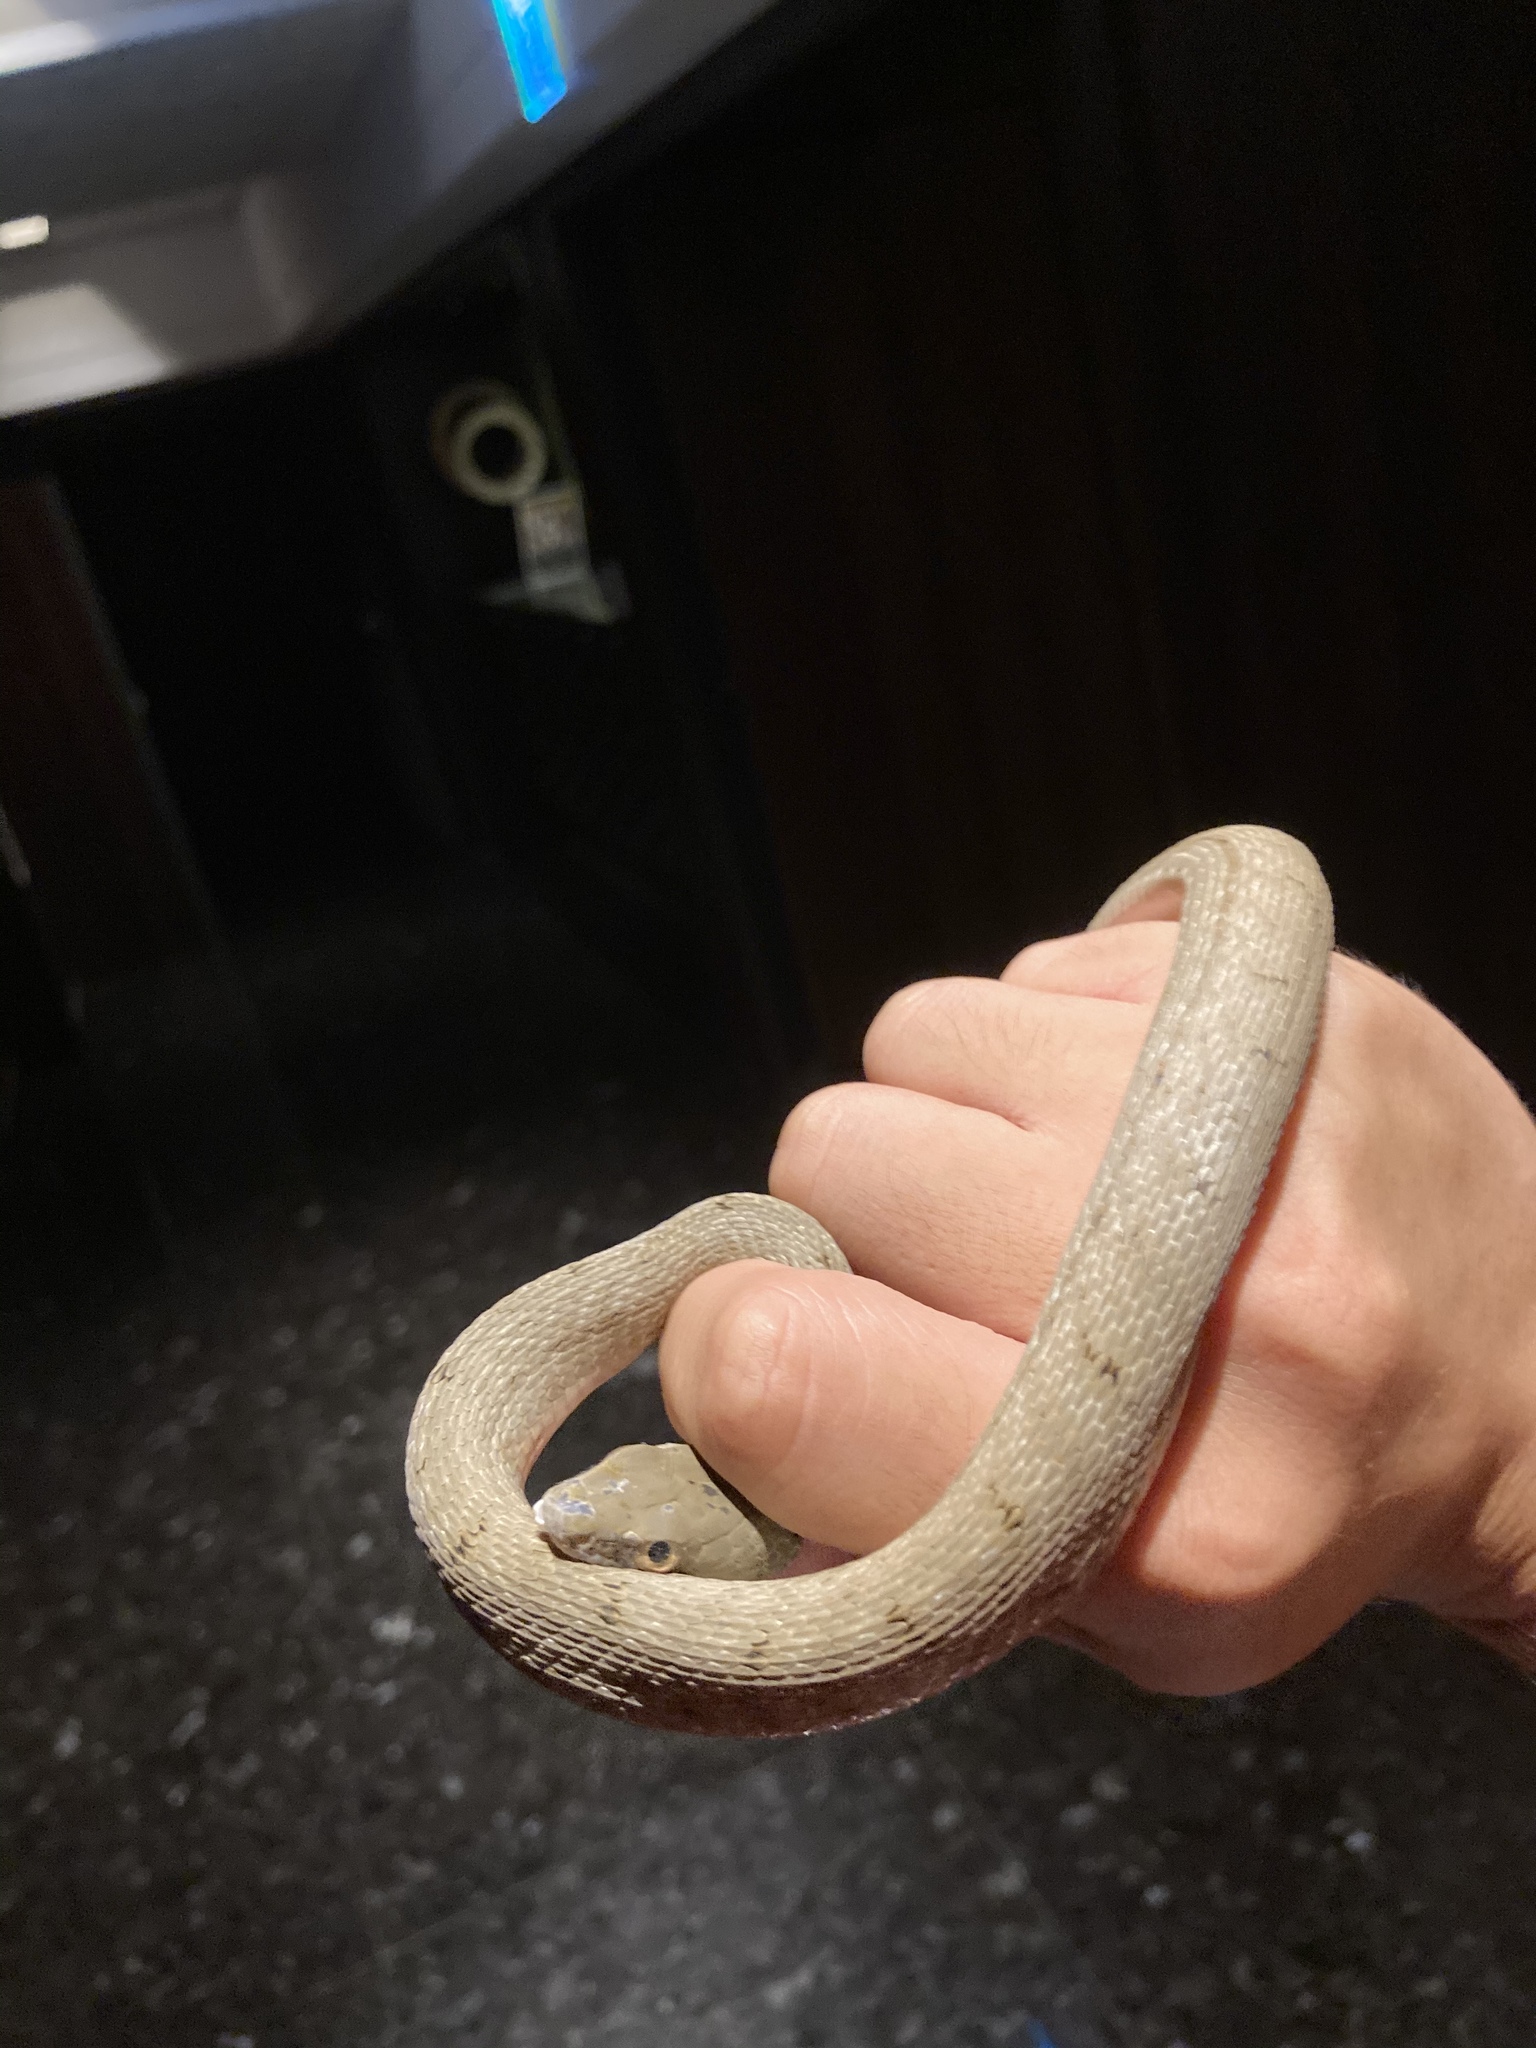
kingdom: Animalia
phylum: Chordata
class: Squamata
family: Colubridae
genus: Elaphe
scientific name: Elaphe carinata
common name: Taiwan stink snake
